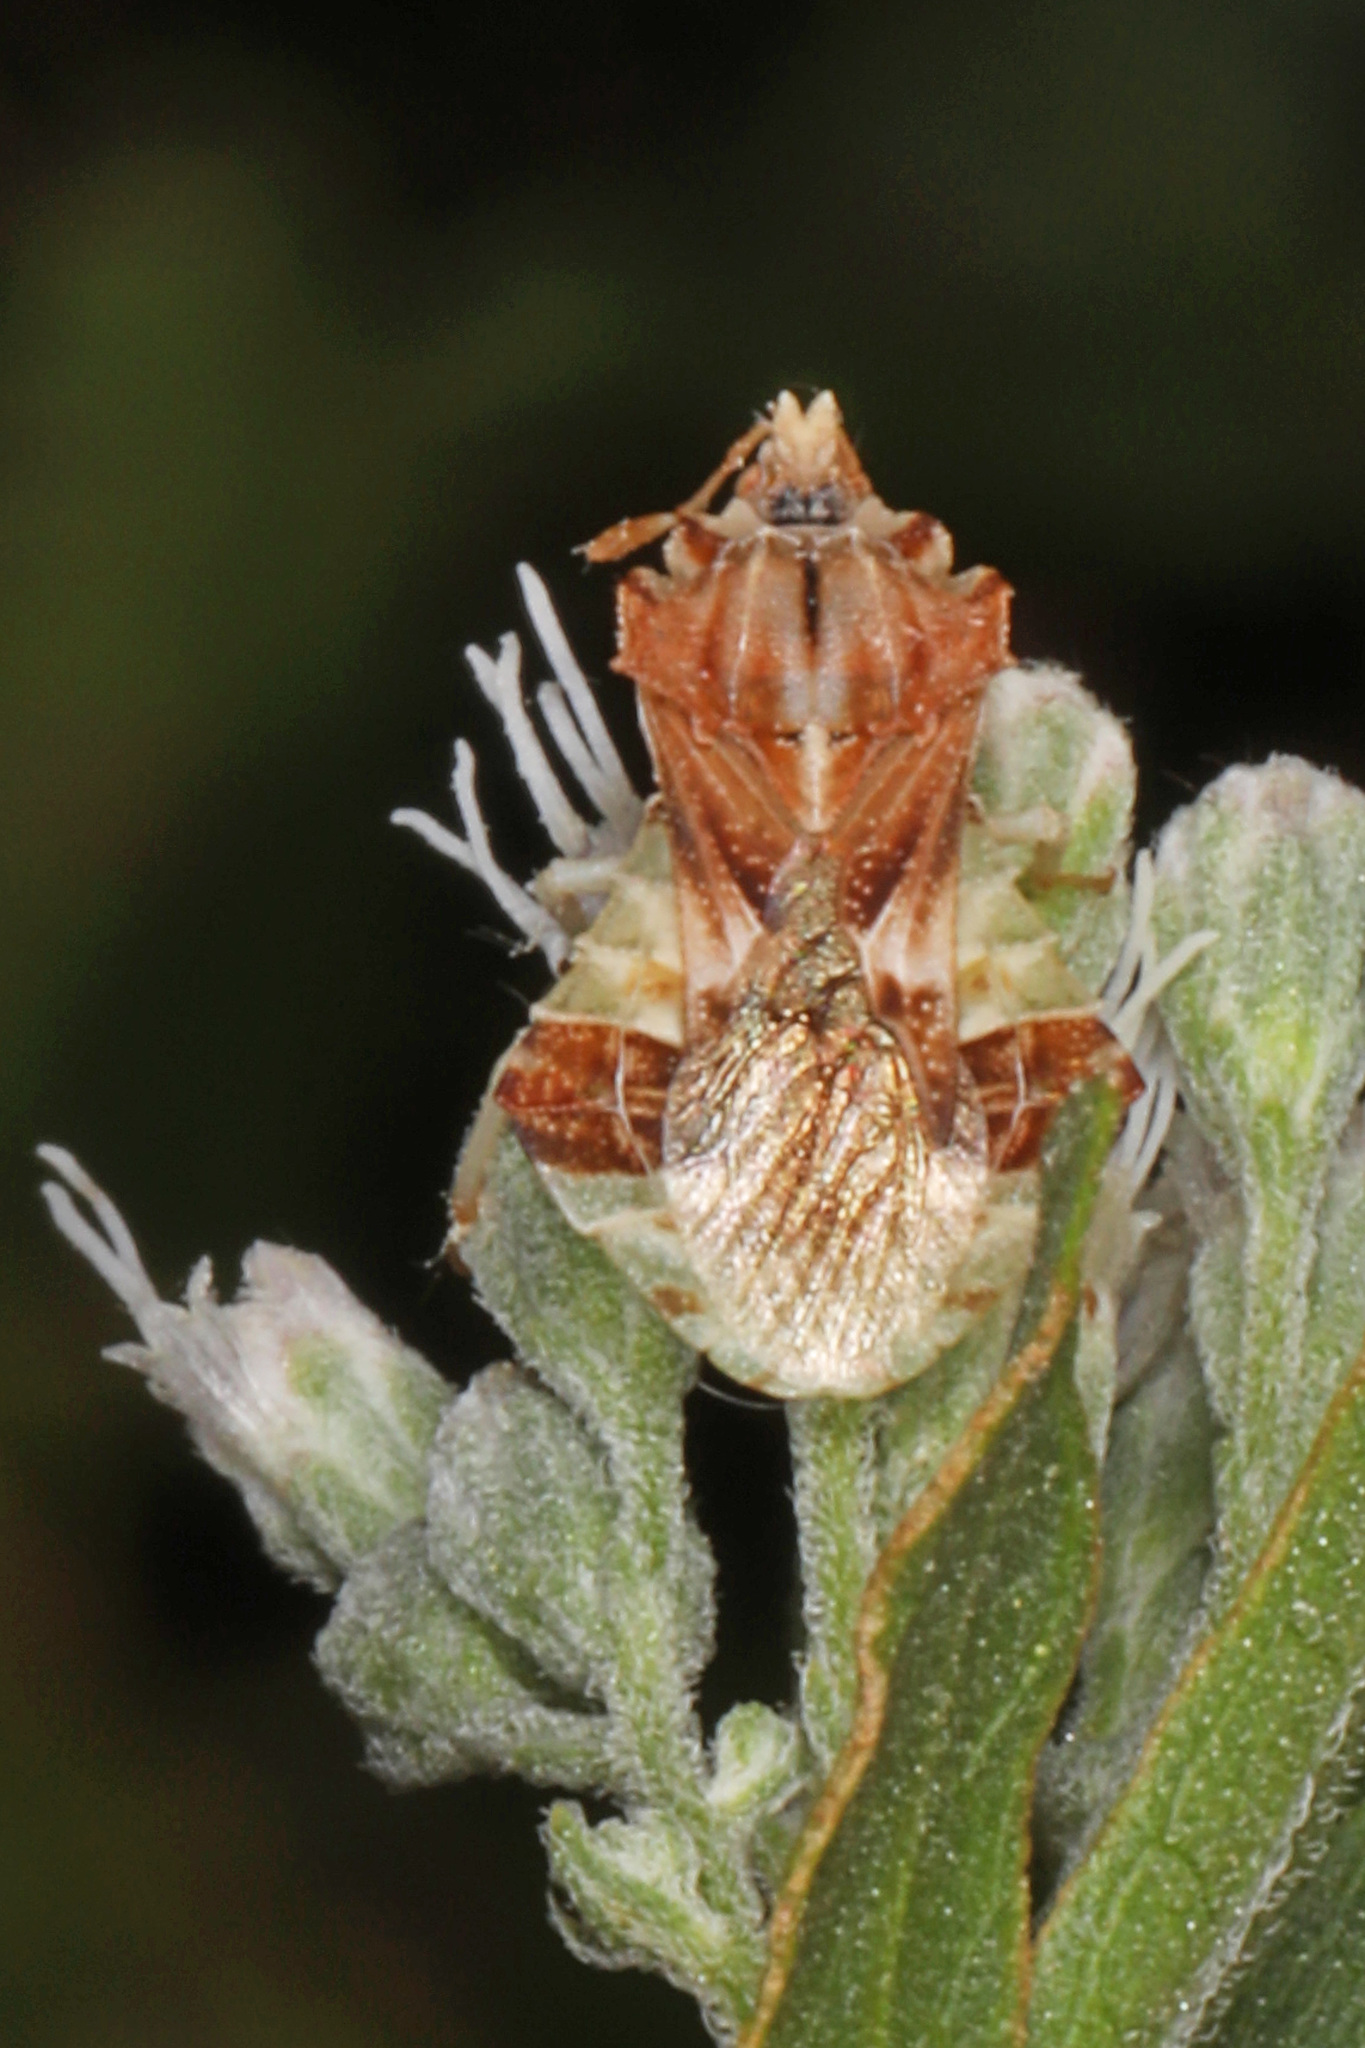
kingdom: Animalia
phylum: Arthropoda
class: Insecta
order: Hemiptera
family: Reduviidae
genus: Phymata
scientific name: Phymata fasciata
